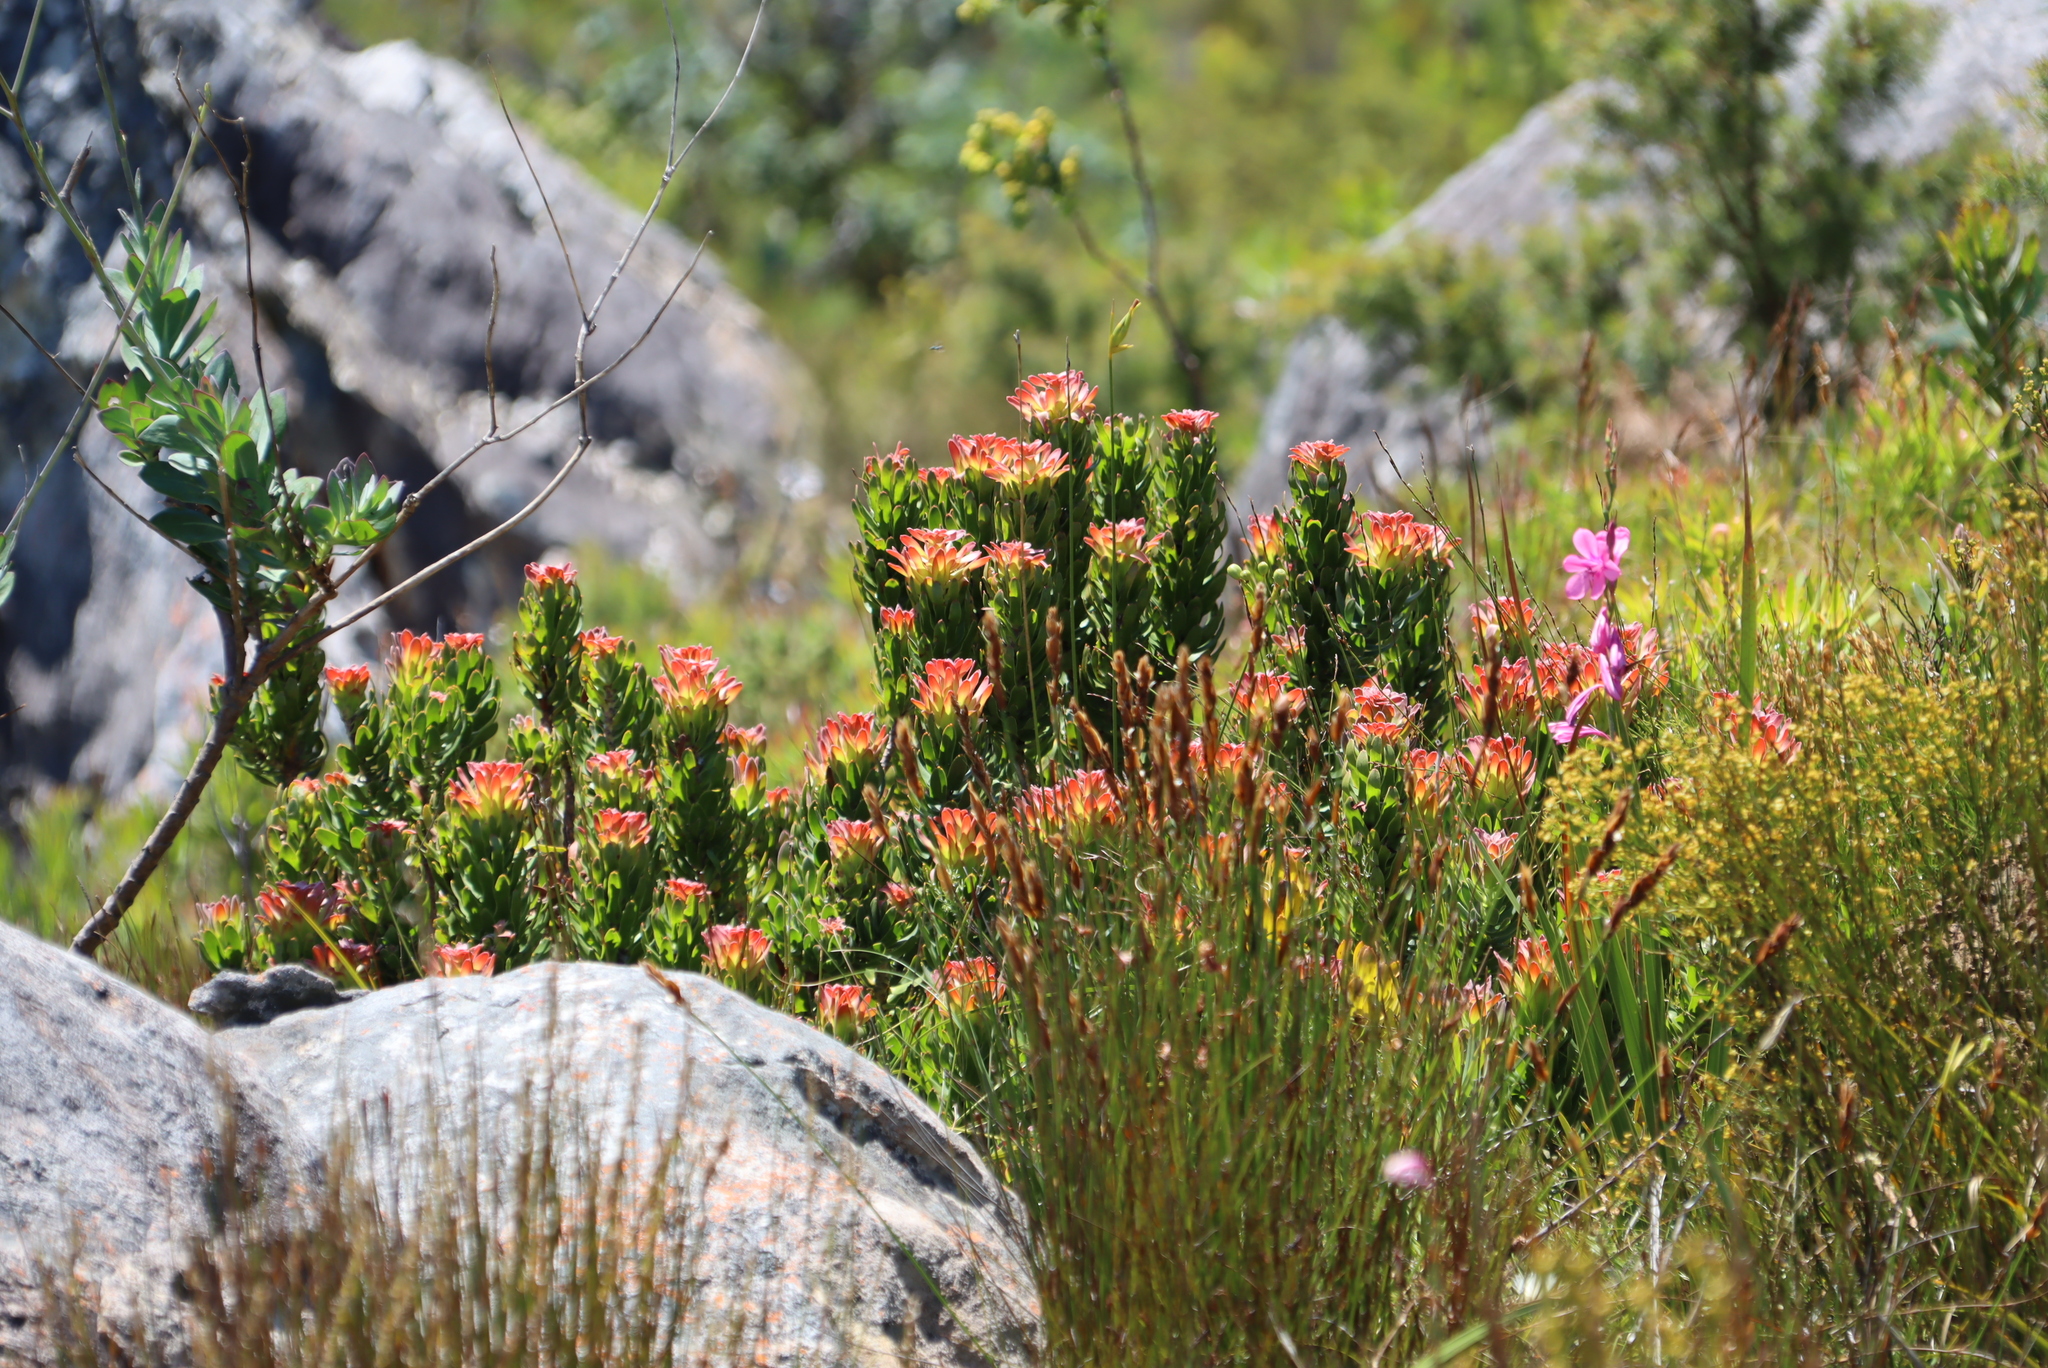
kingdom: Plantae
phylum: Tracheophyta
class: Magnoliopsida
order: Proteales
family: Proteaceae
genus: Mimetes
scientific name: Mimetes cucullatus
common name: Common pagoda
